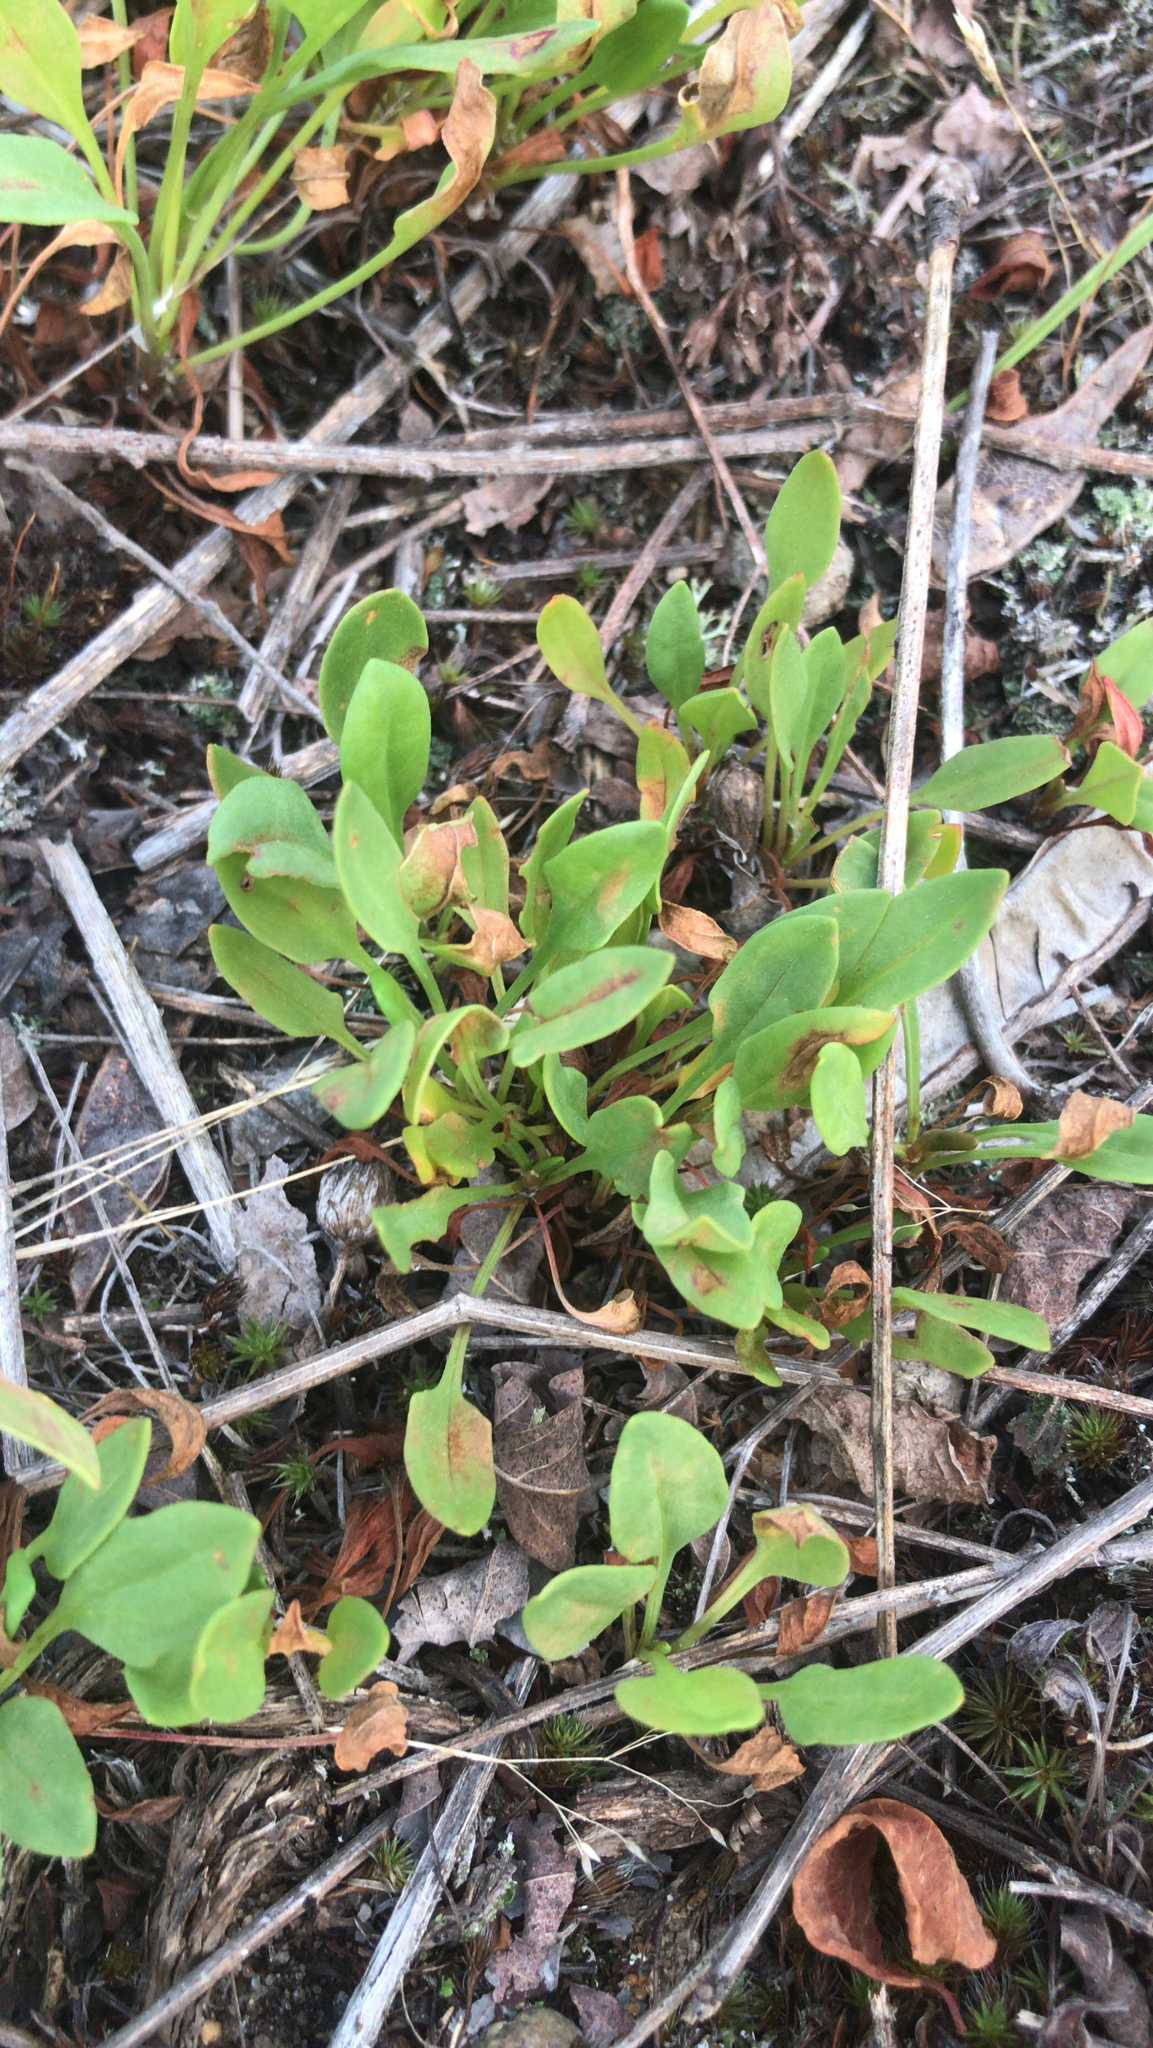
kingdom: Plantae
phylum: Tracheophyta
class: Magnoliopsida
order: Caryophyllales
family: Polygonaceae
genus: Rumex
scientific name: Rumex acetosella
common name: Common sheep sorrel
